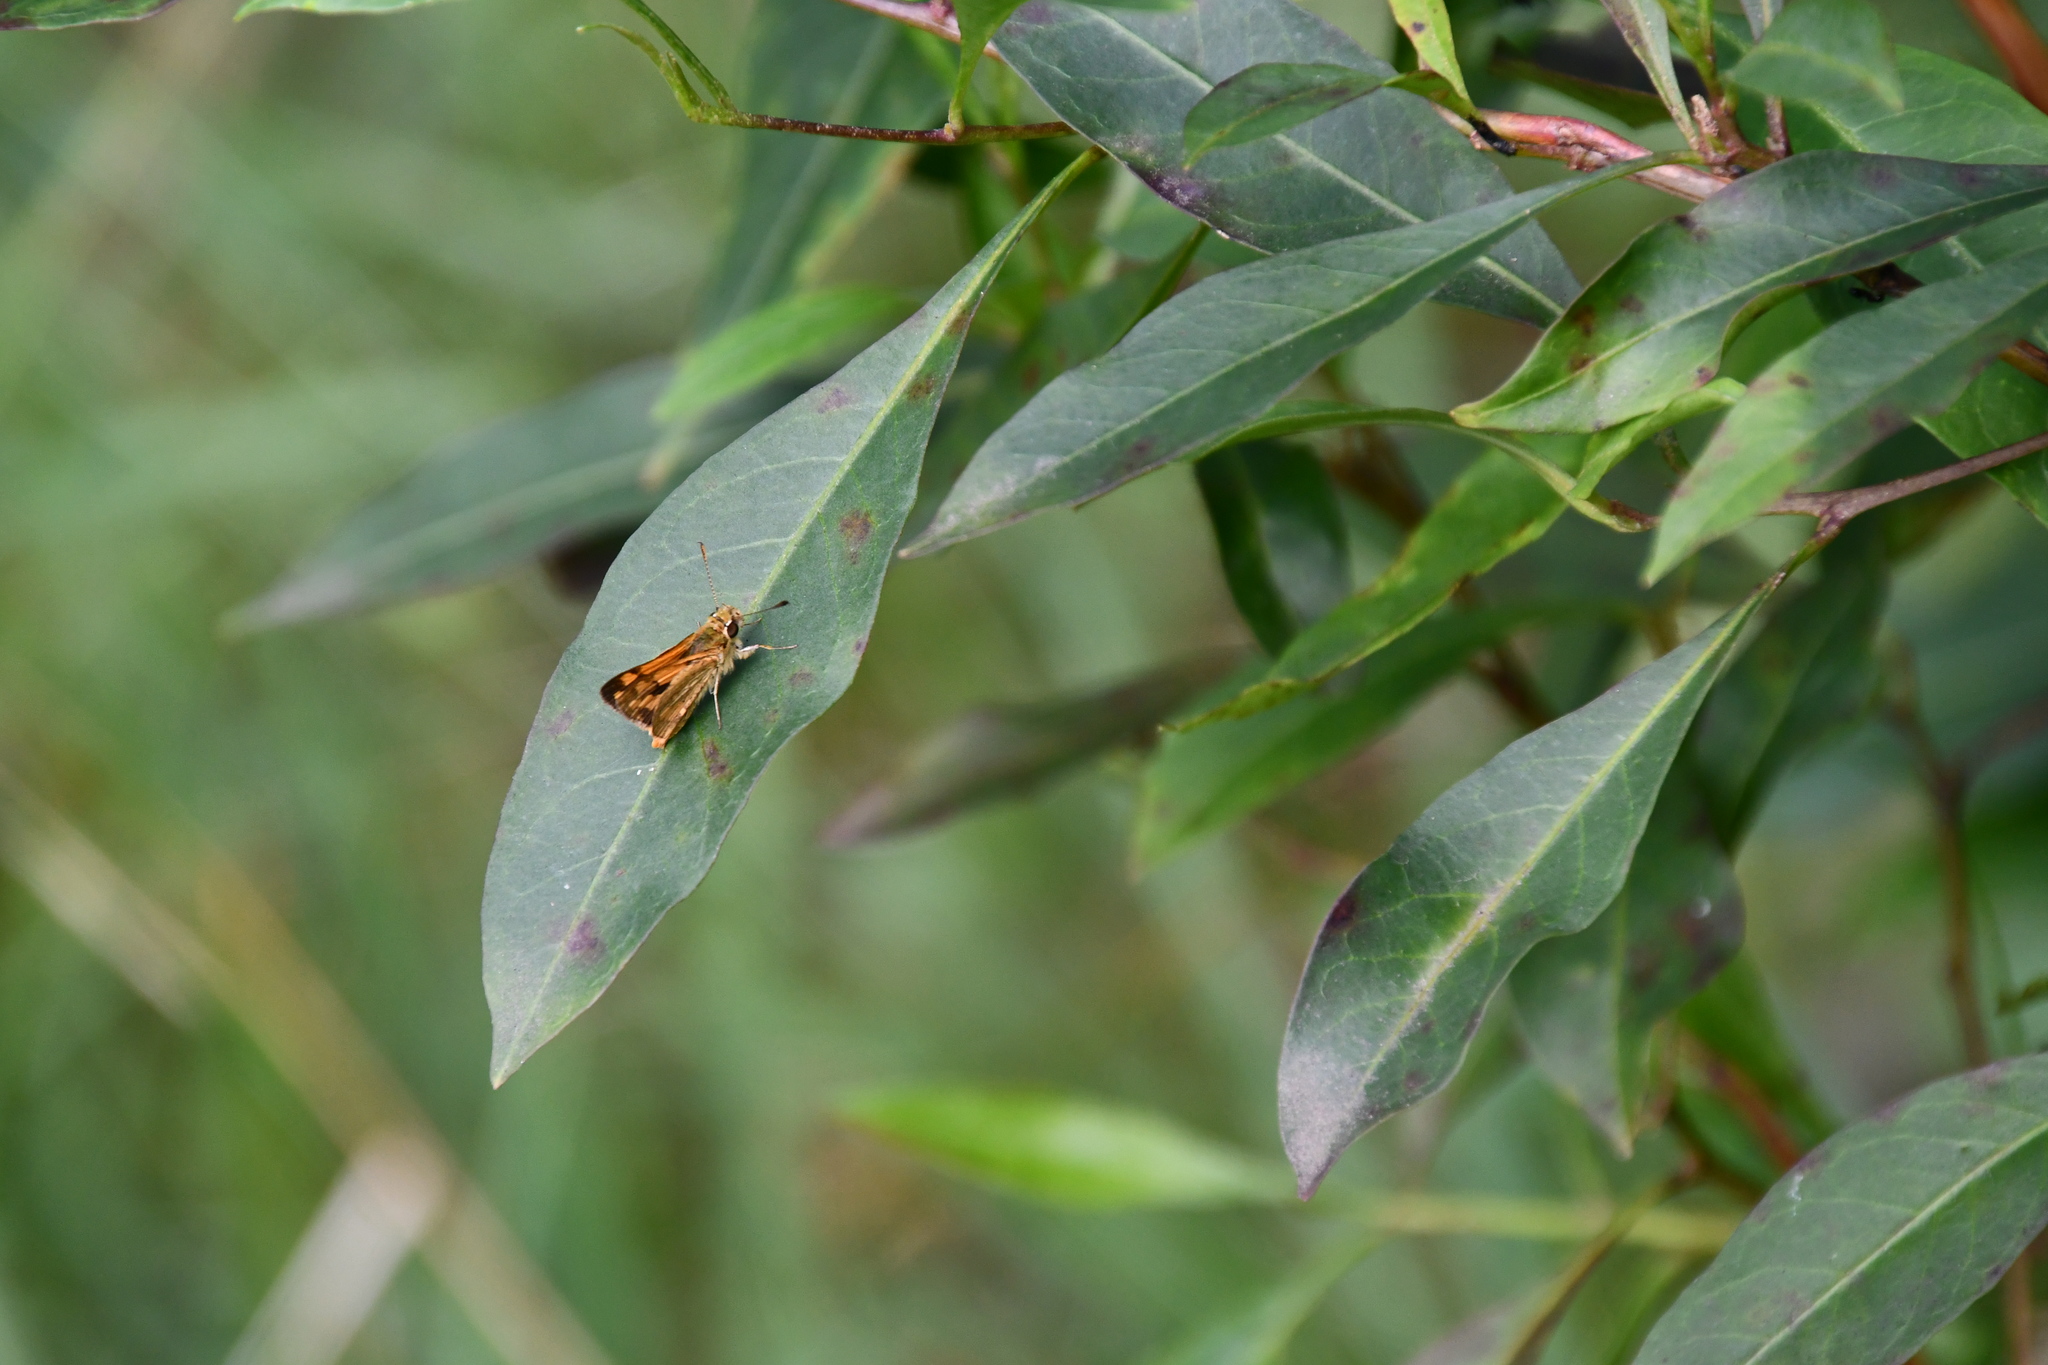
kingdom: Animalia
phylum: Arthropoda
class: Insecta
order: Lepidoptera
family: Hesperiidae
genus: Ocybadistes
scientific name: Ocybadistes walkeri
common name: Yellow-banded dart
